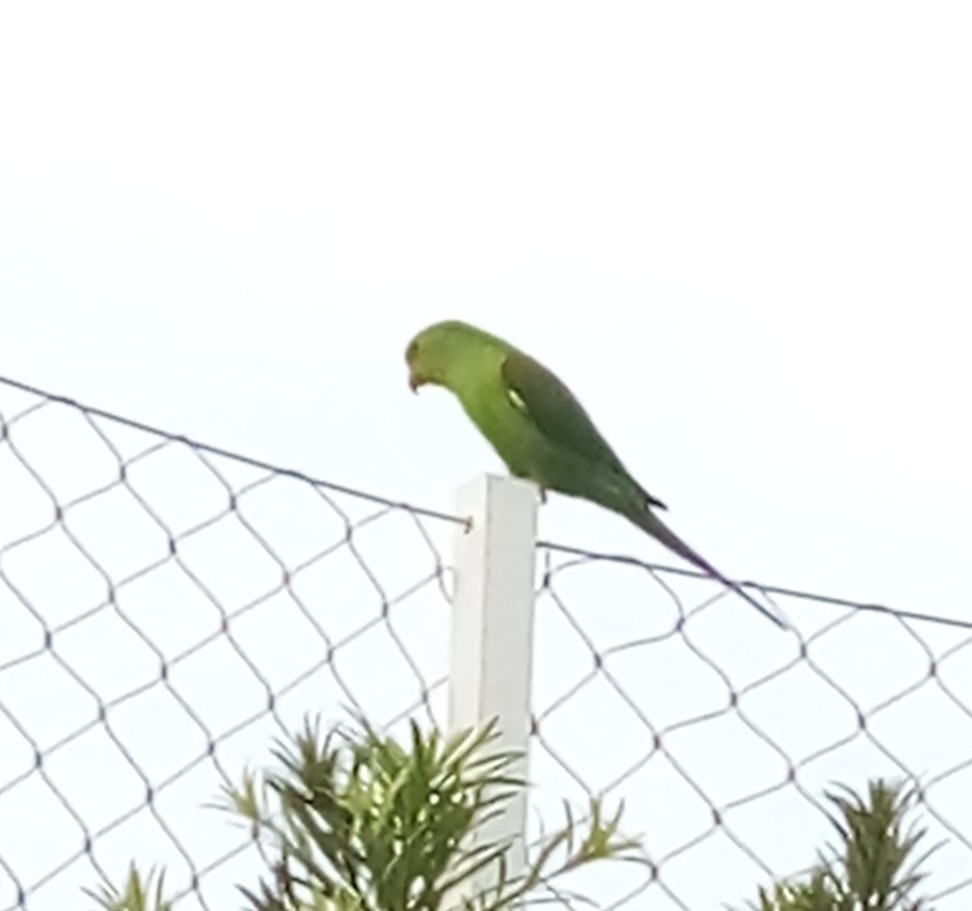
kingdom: Animalia
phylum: Chordata
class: Aves
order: Psittaciformes
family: Psittacidae
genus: Brotogeris
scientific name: Brotogeris tirica
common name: Plain parakeet
